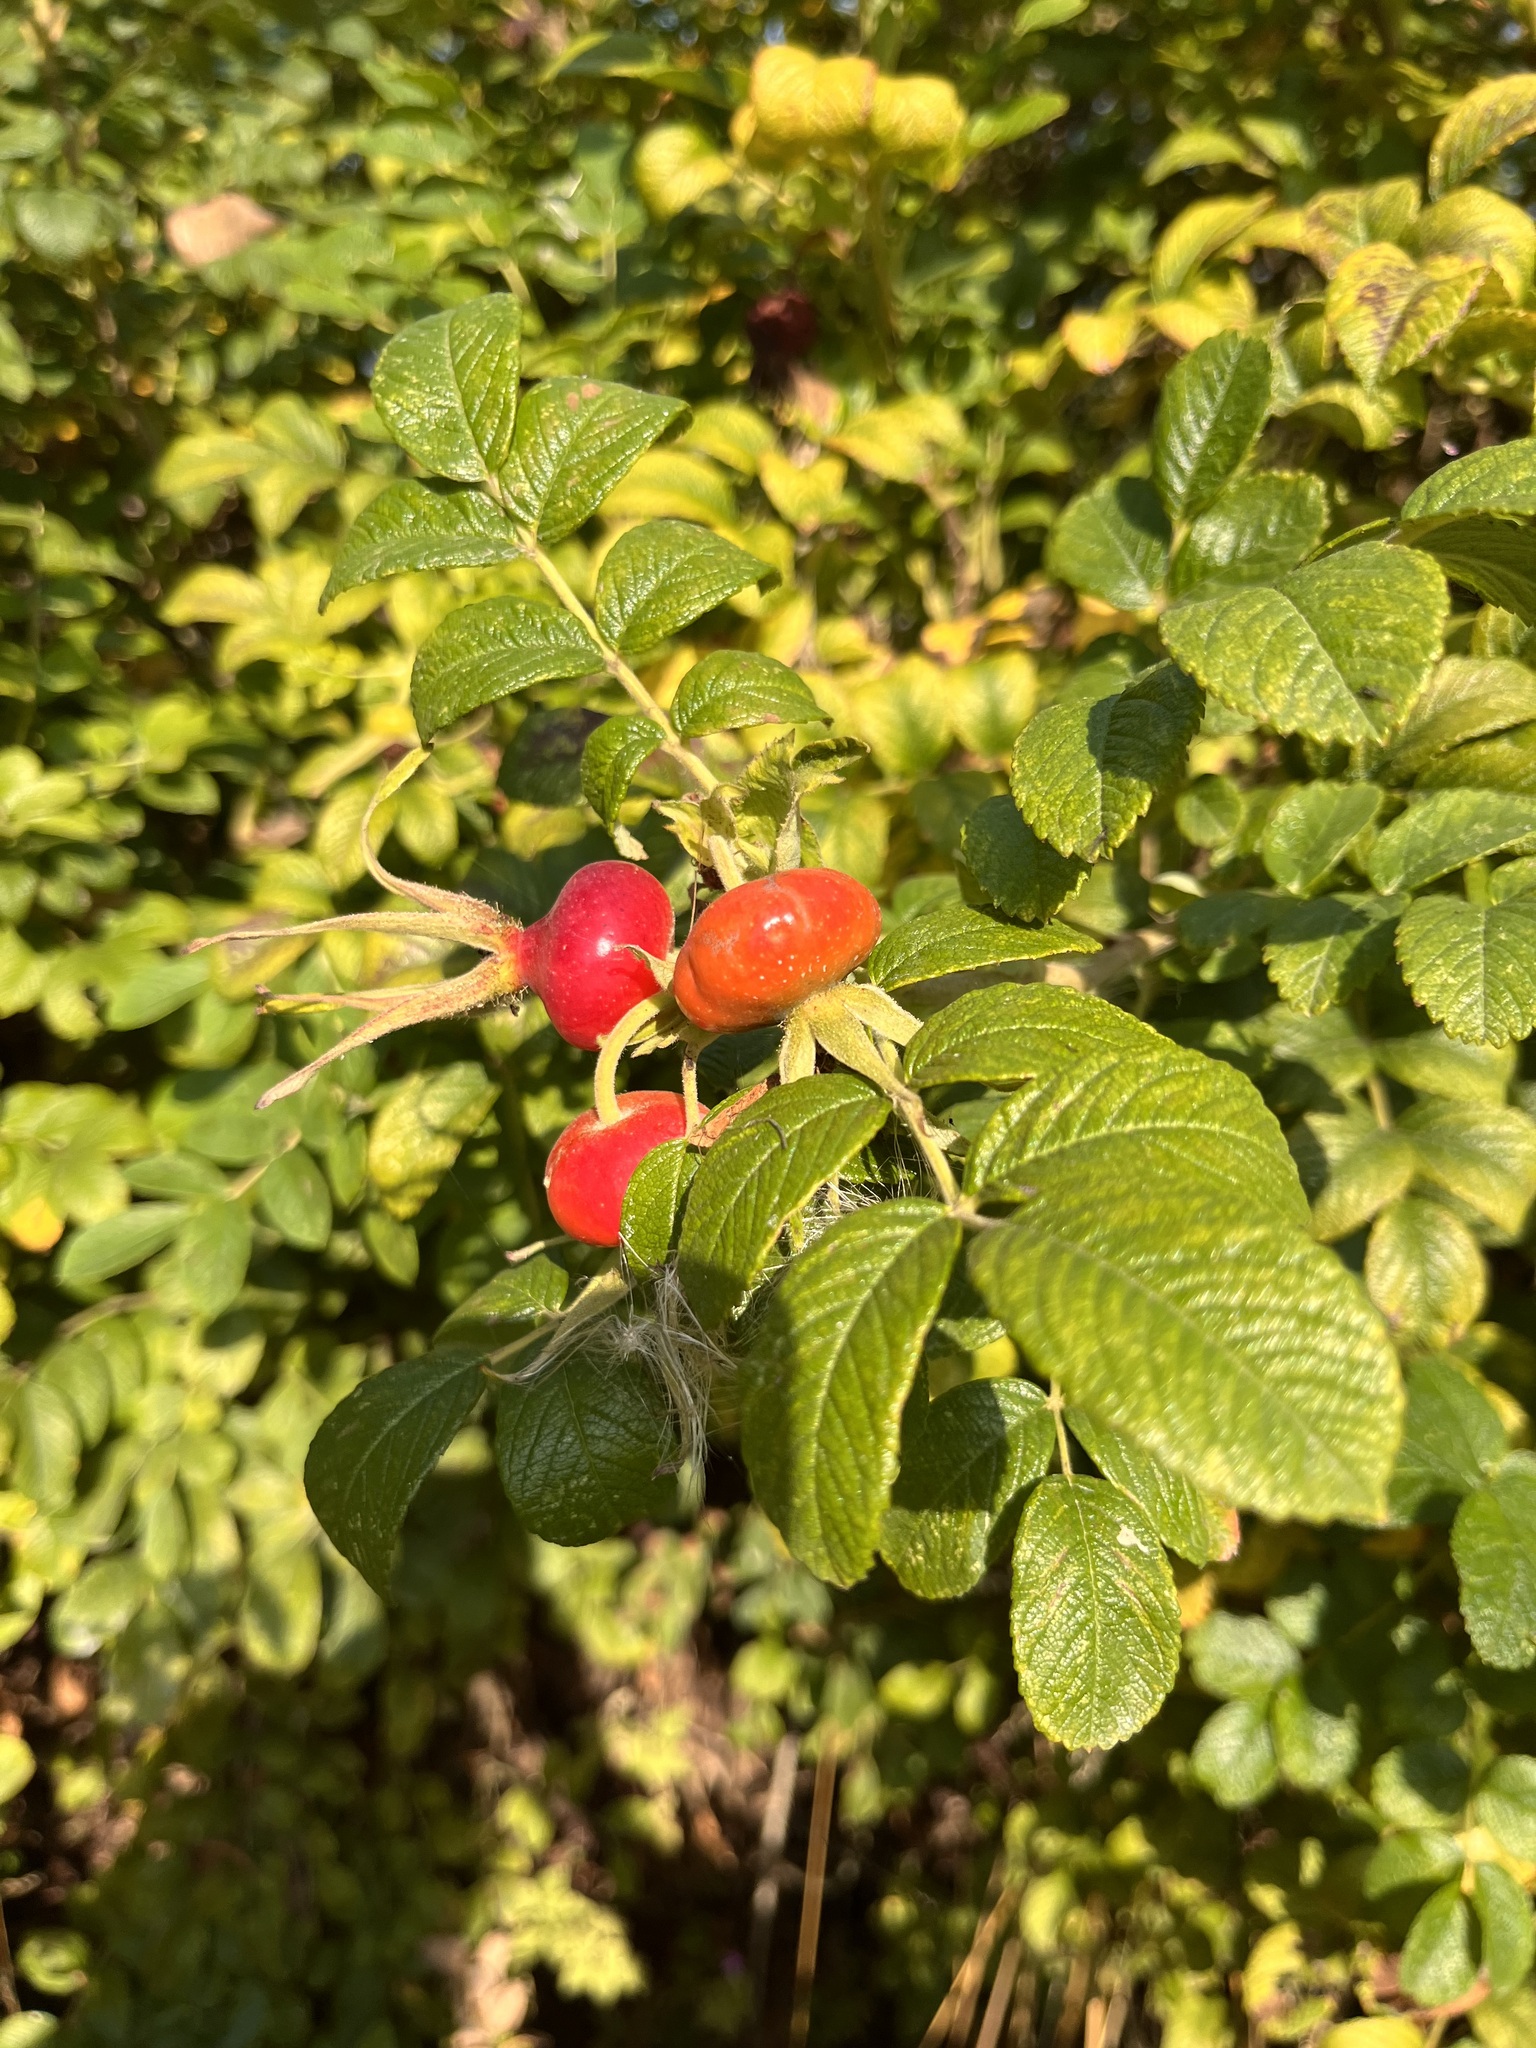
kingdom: Plantae
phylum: Tracheophyta
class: Magnoliopsida
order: Rosales
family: Rosaceae
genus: Rosa
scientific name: Rosa rugosa
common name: Japanese rose
